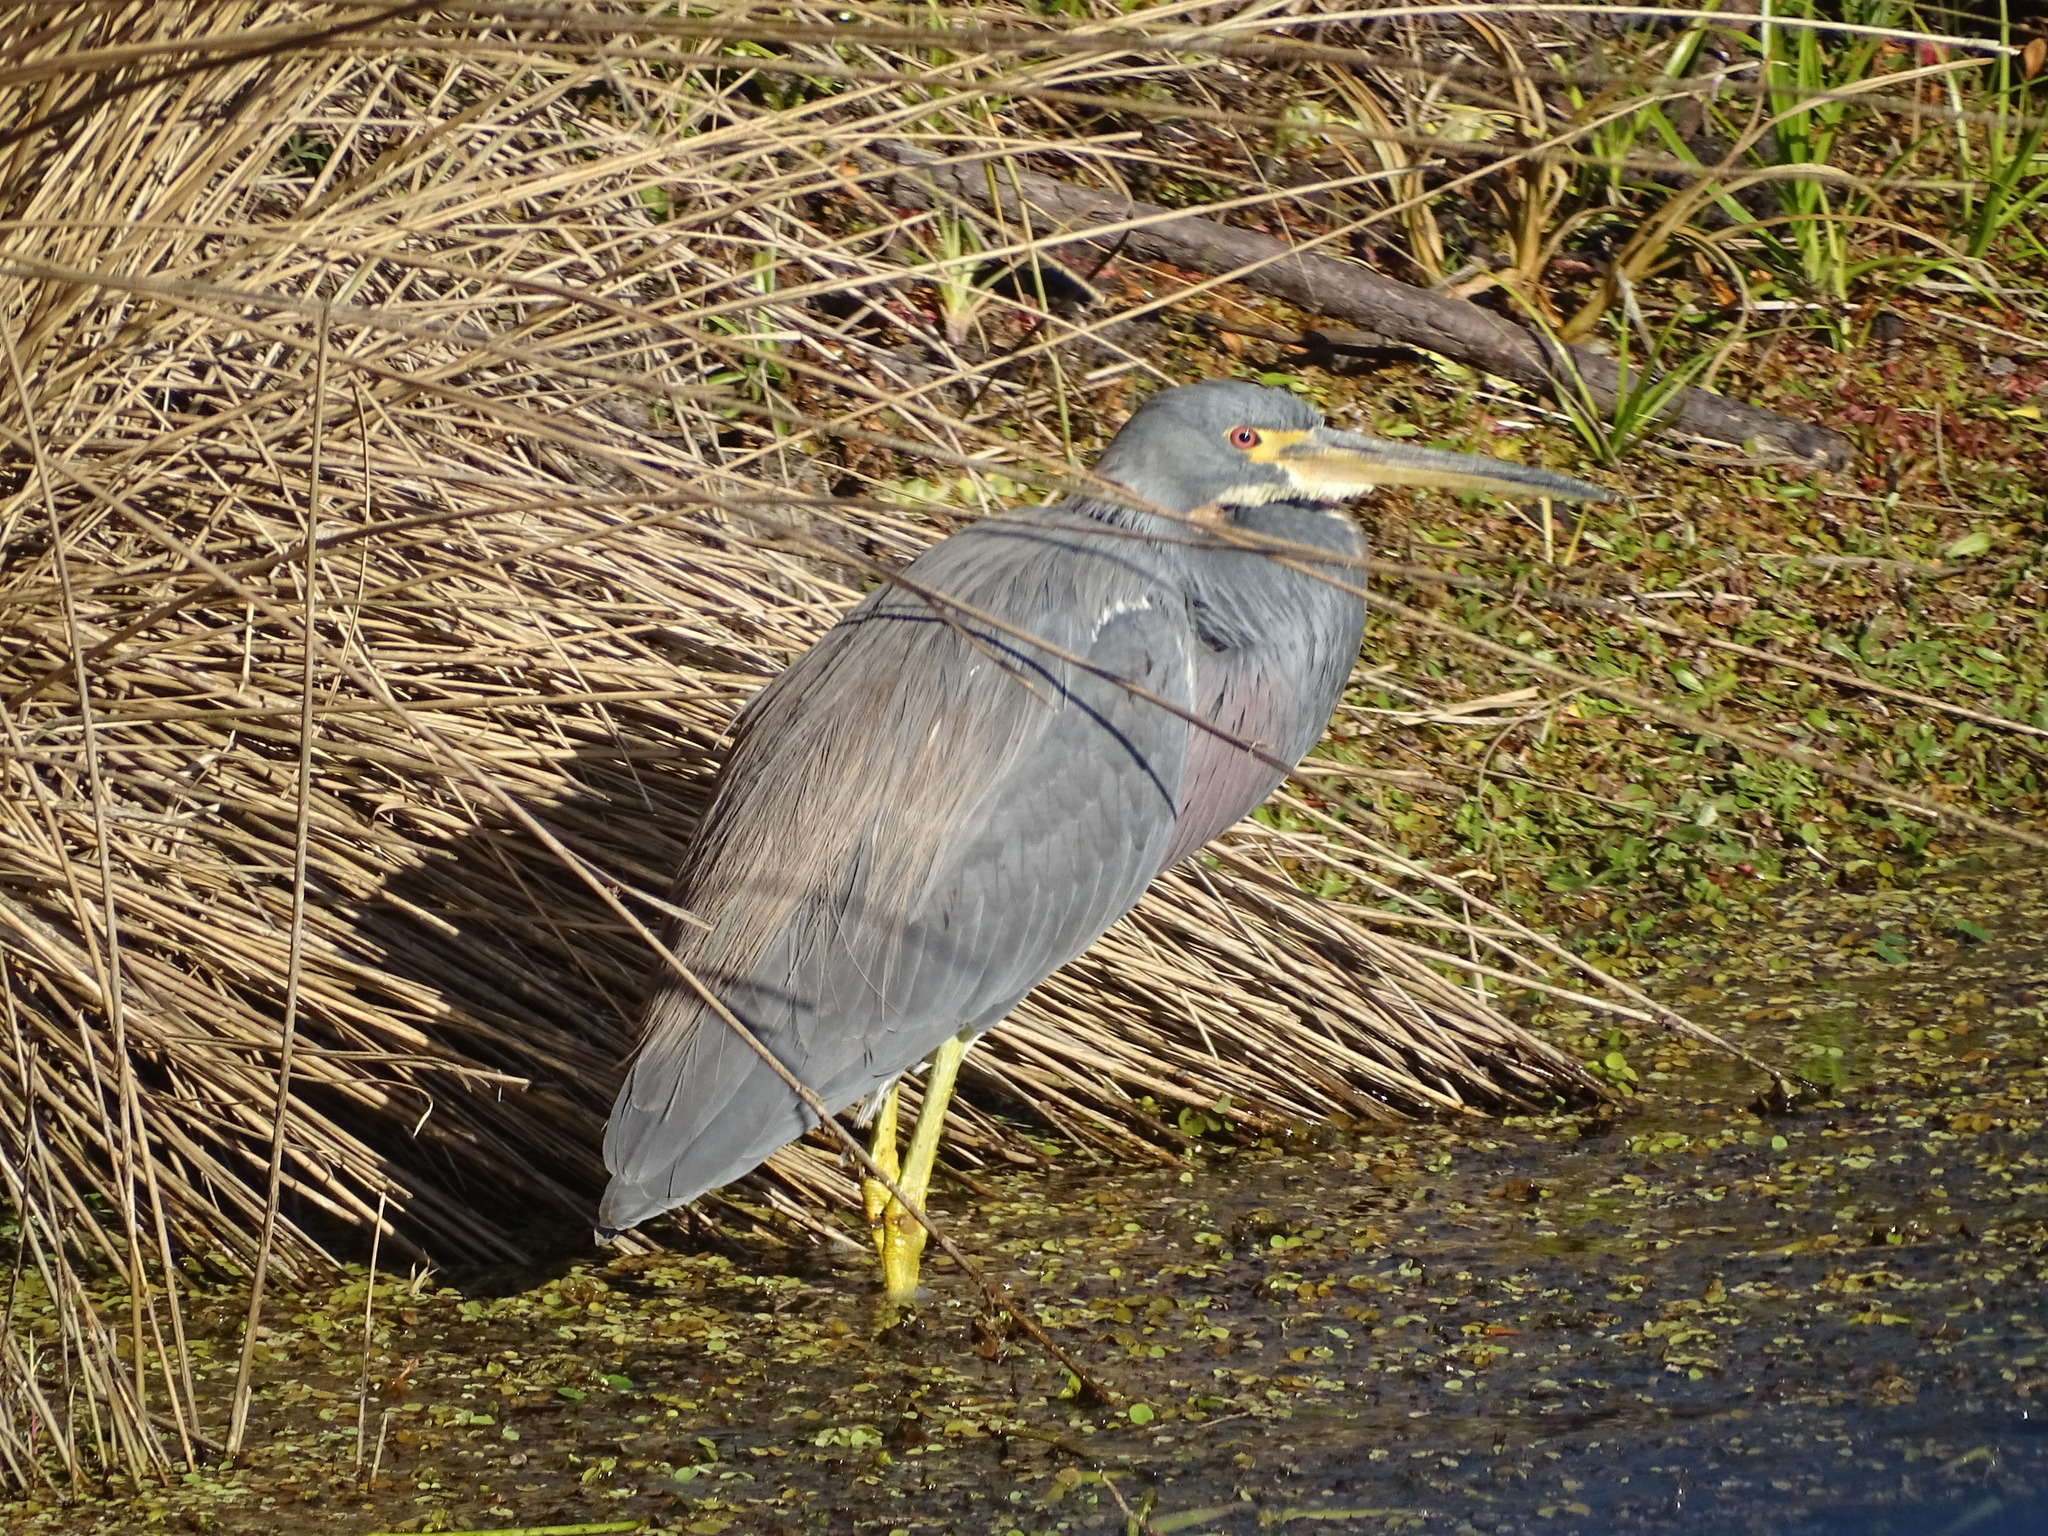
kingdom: Animalia
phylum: Chordata
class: Aves
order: Pelecaniformes
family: Ardeidae
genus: Egretta
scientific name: Egretta tricolor
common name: Tricolored heron
